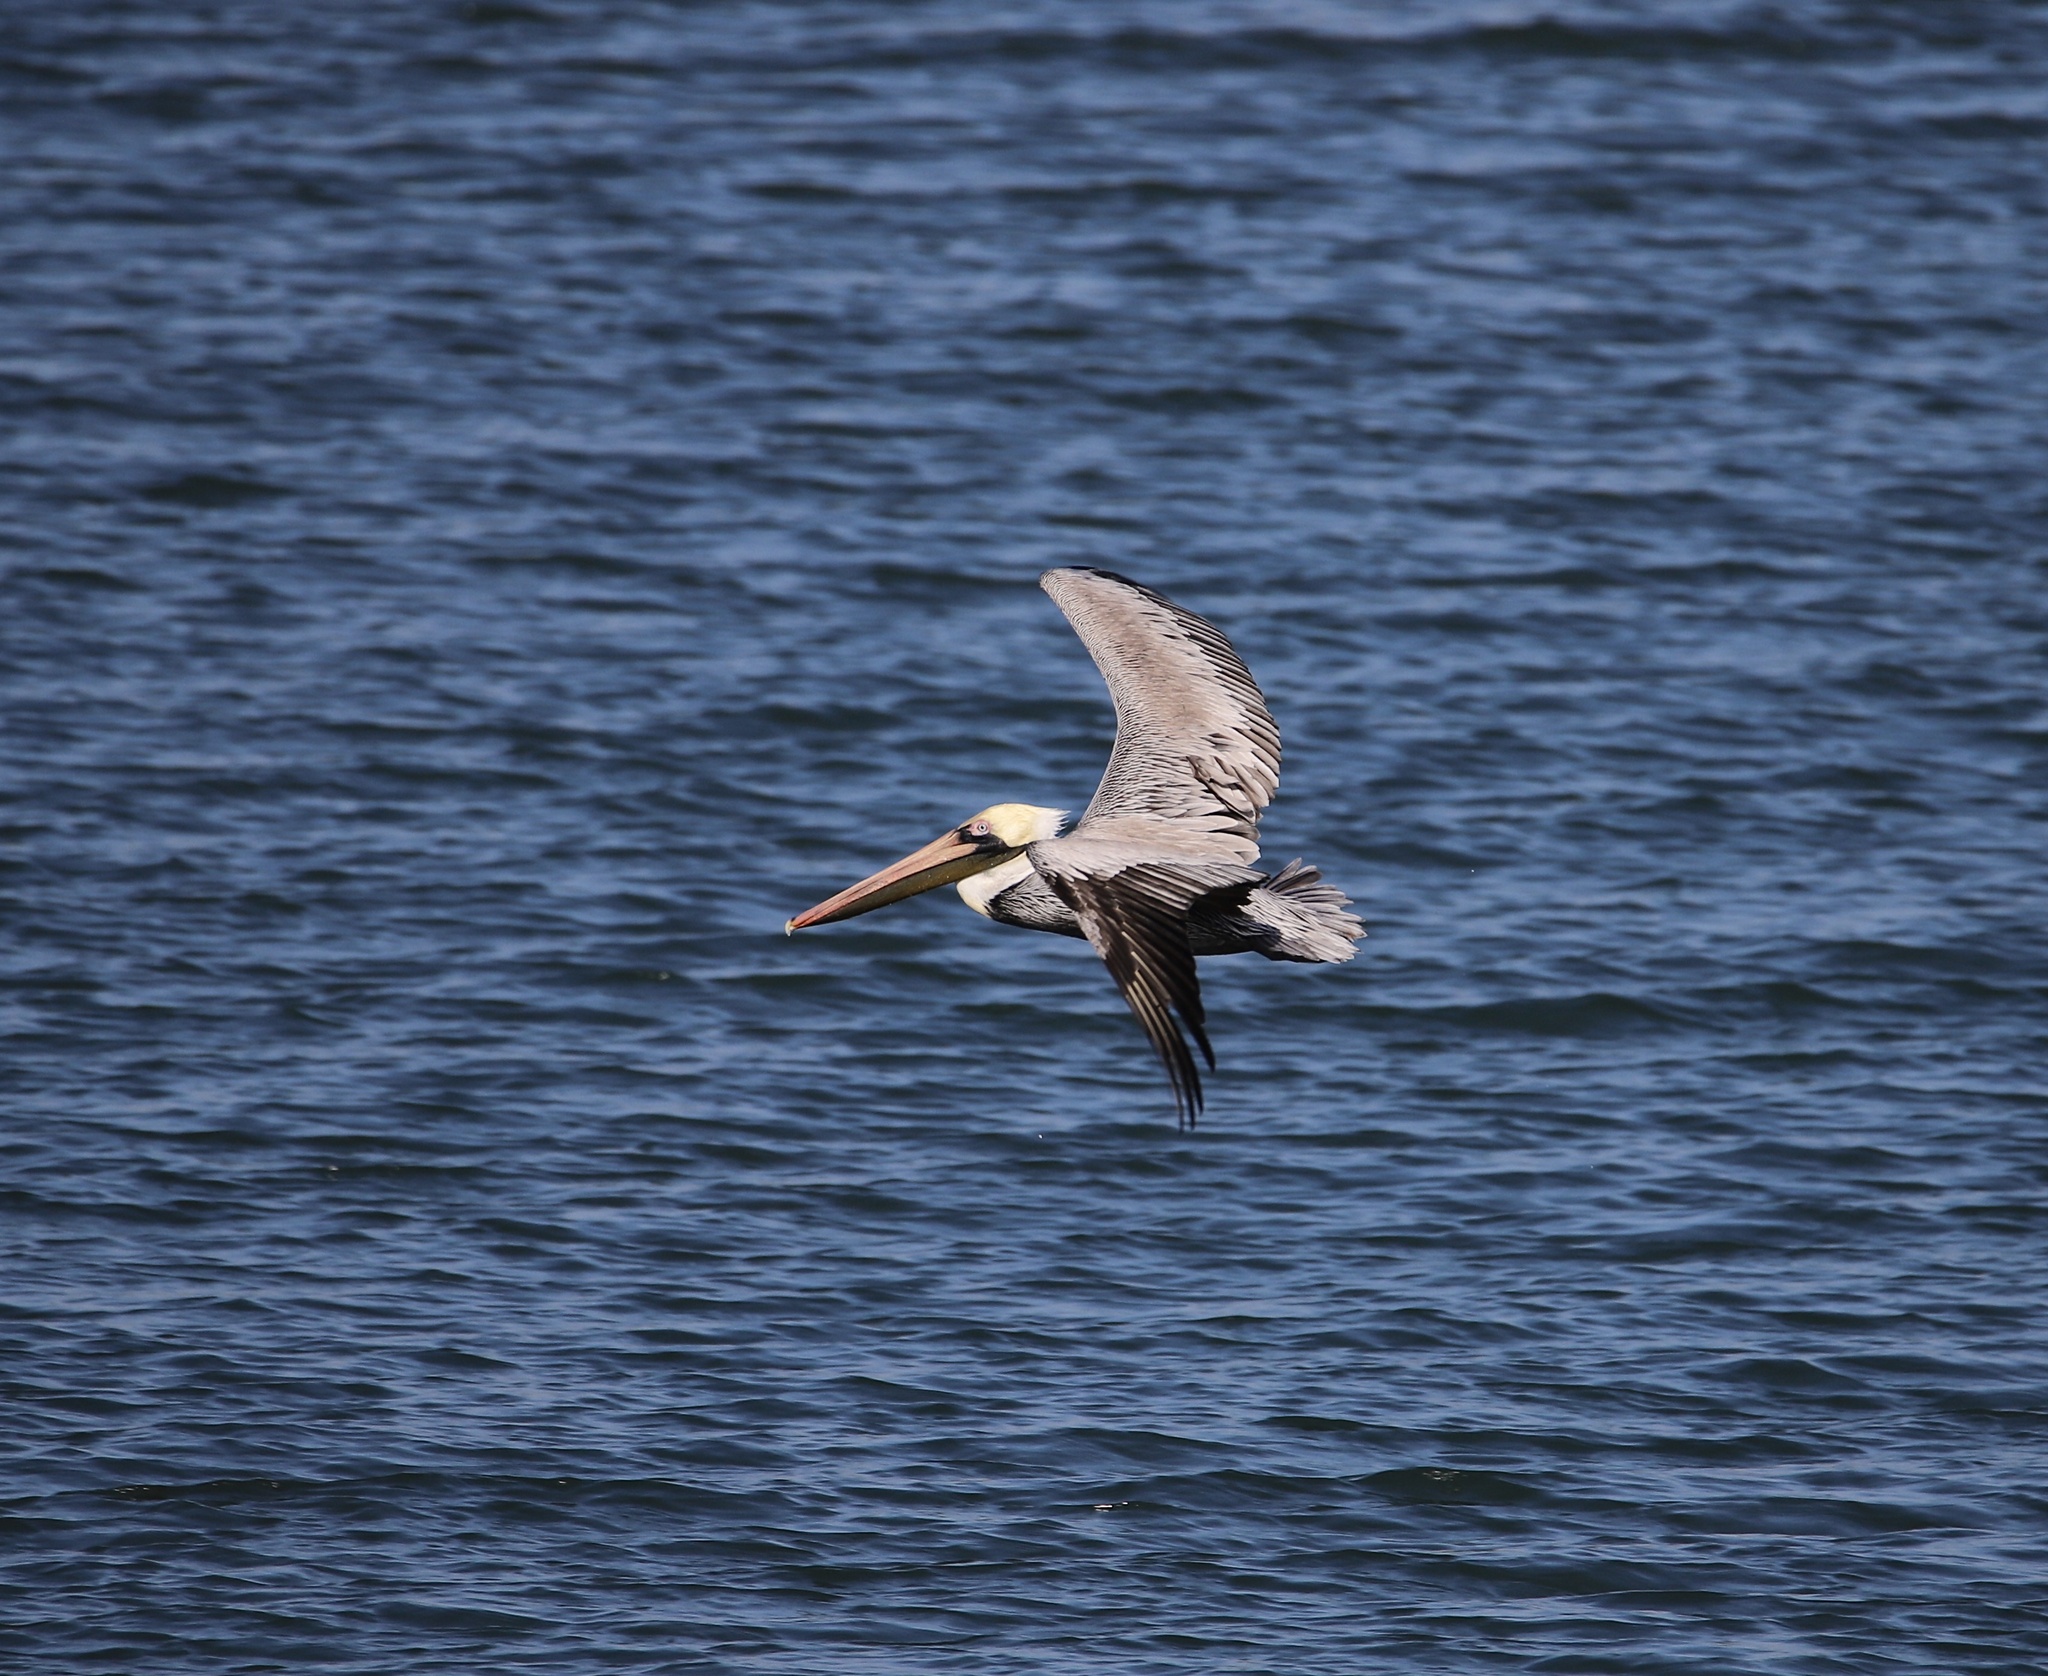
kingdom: Animalia
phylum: Chordata
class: Aves
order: Pelecaniformes
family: Pelecanidae
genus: Pelecanus
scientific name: Pelecanus occidentalis
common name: Brown pelican
